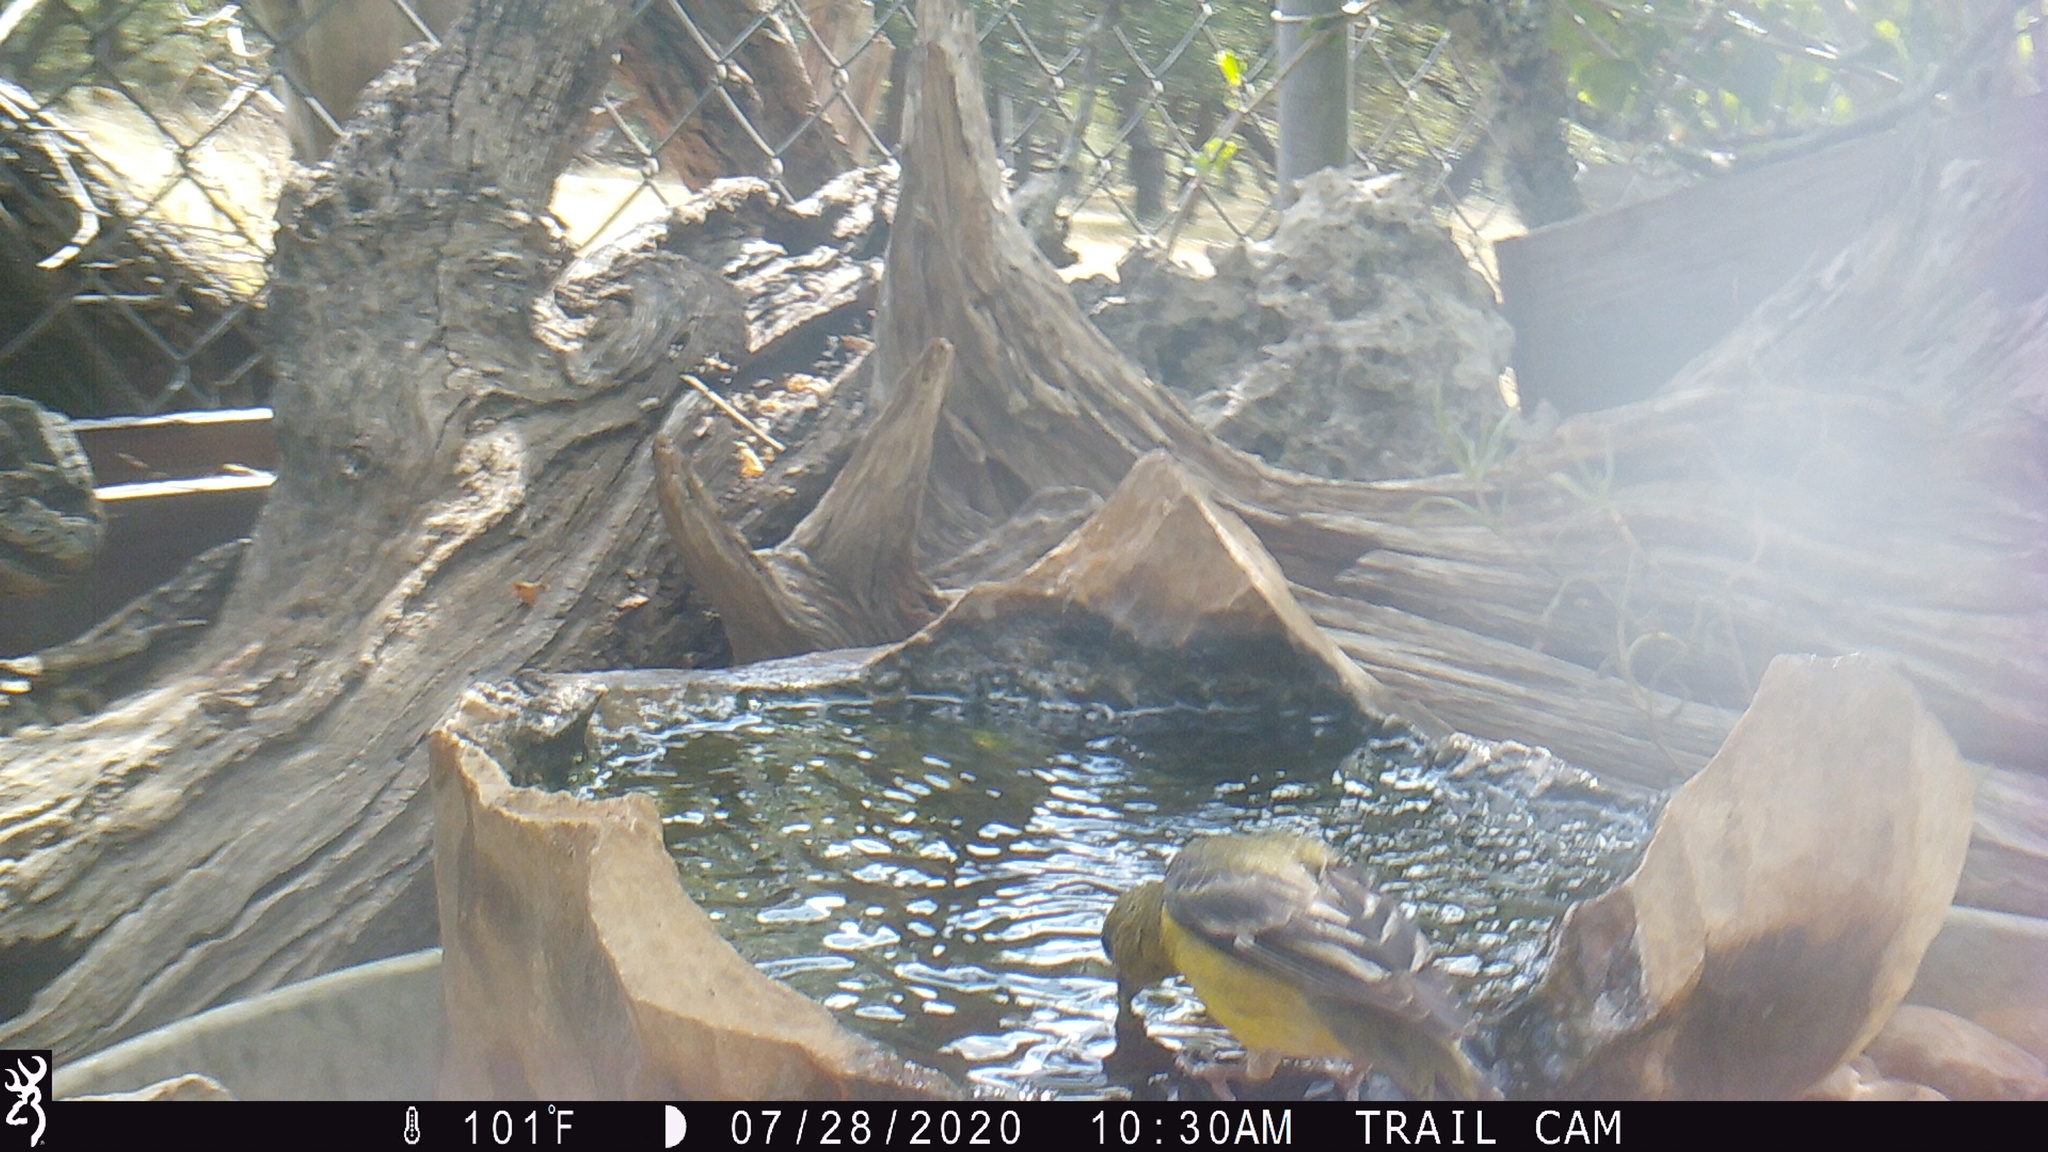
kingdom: Animalia
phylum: Chordata
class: Aves
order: Passeriformes
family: Fringillidae
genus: Spinus
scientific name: Spinus psaltria
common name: Lesser goldfinch
